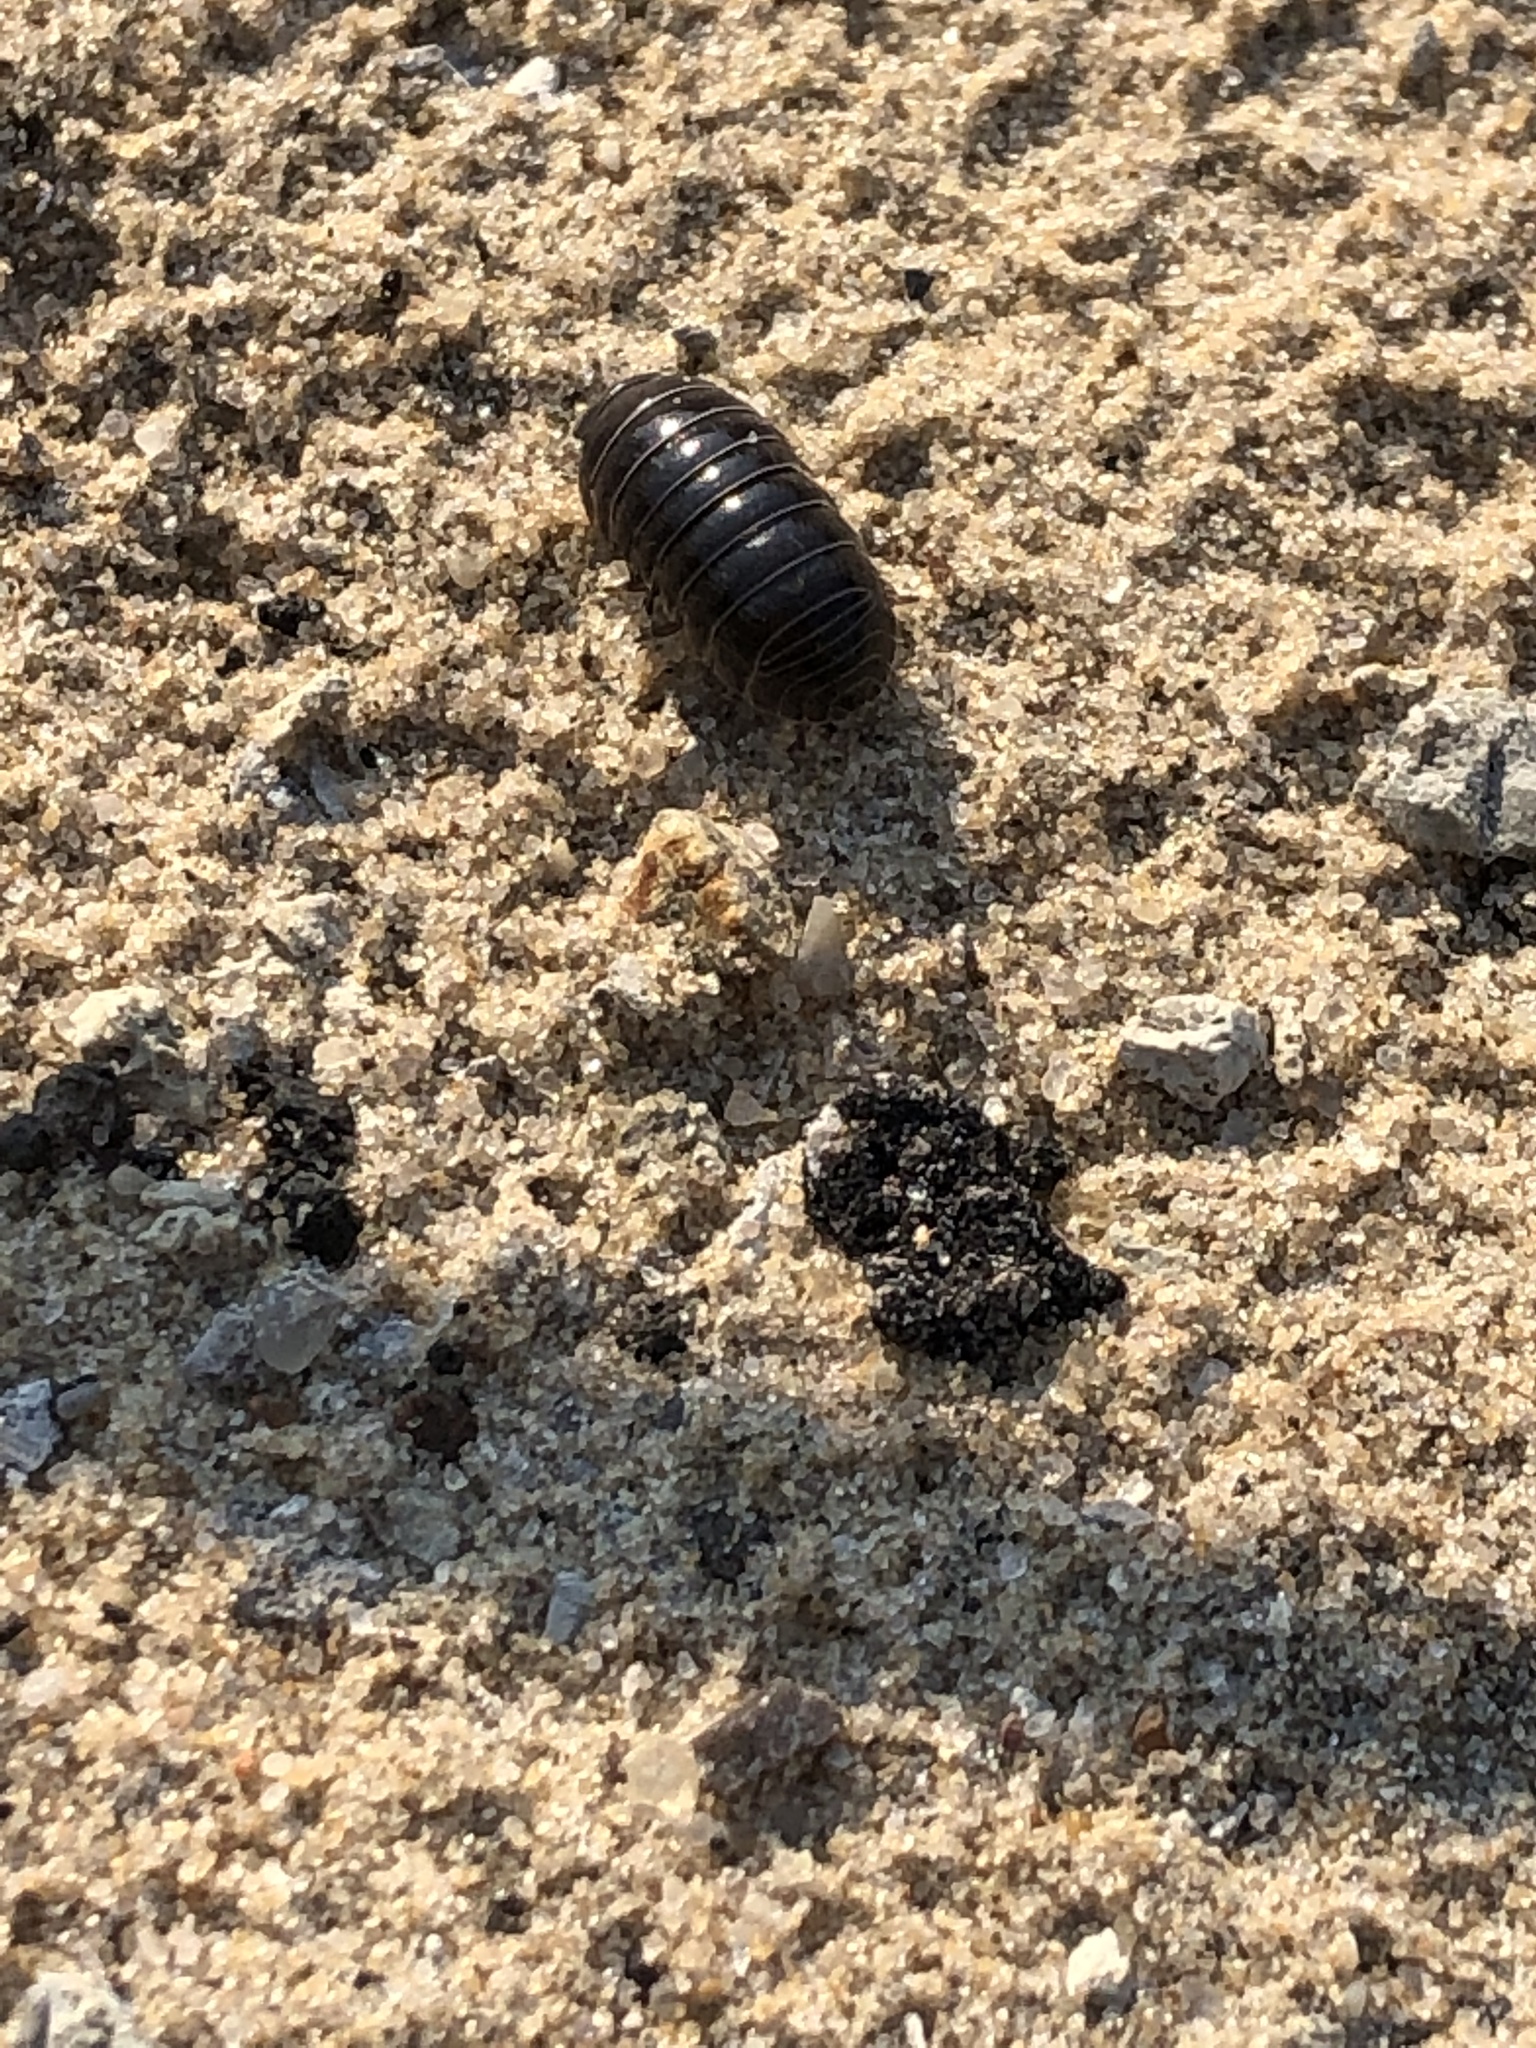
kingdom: Animalia
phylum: Arthropoda
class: Malacostraca
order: Isopoda
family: Armadillidiidae
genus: Armadillidium
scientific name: Armadillidium vulgare
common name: Common pill woodlouse
